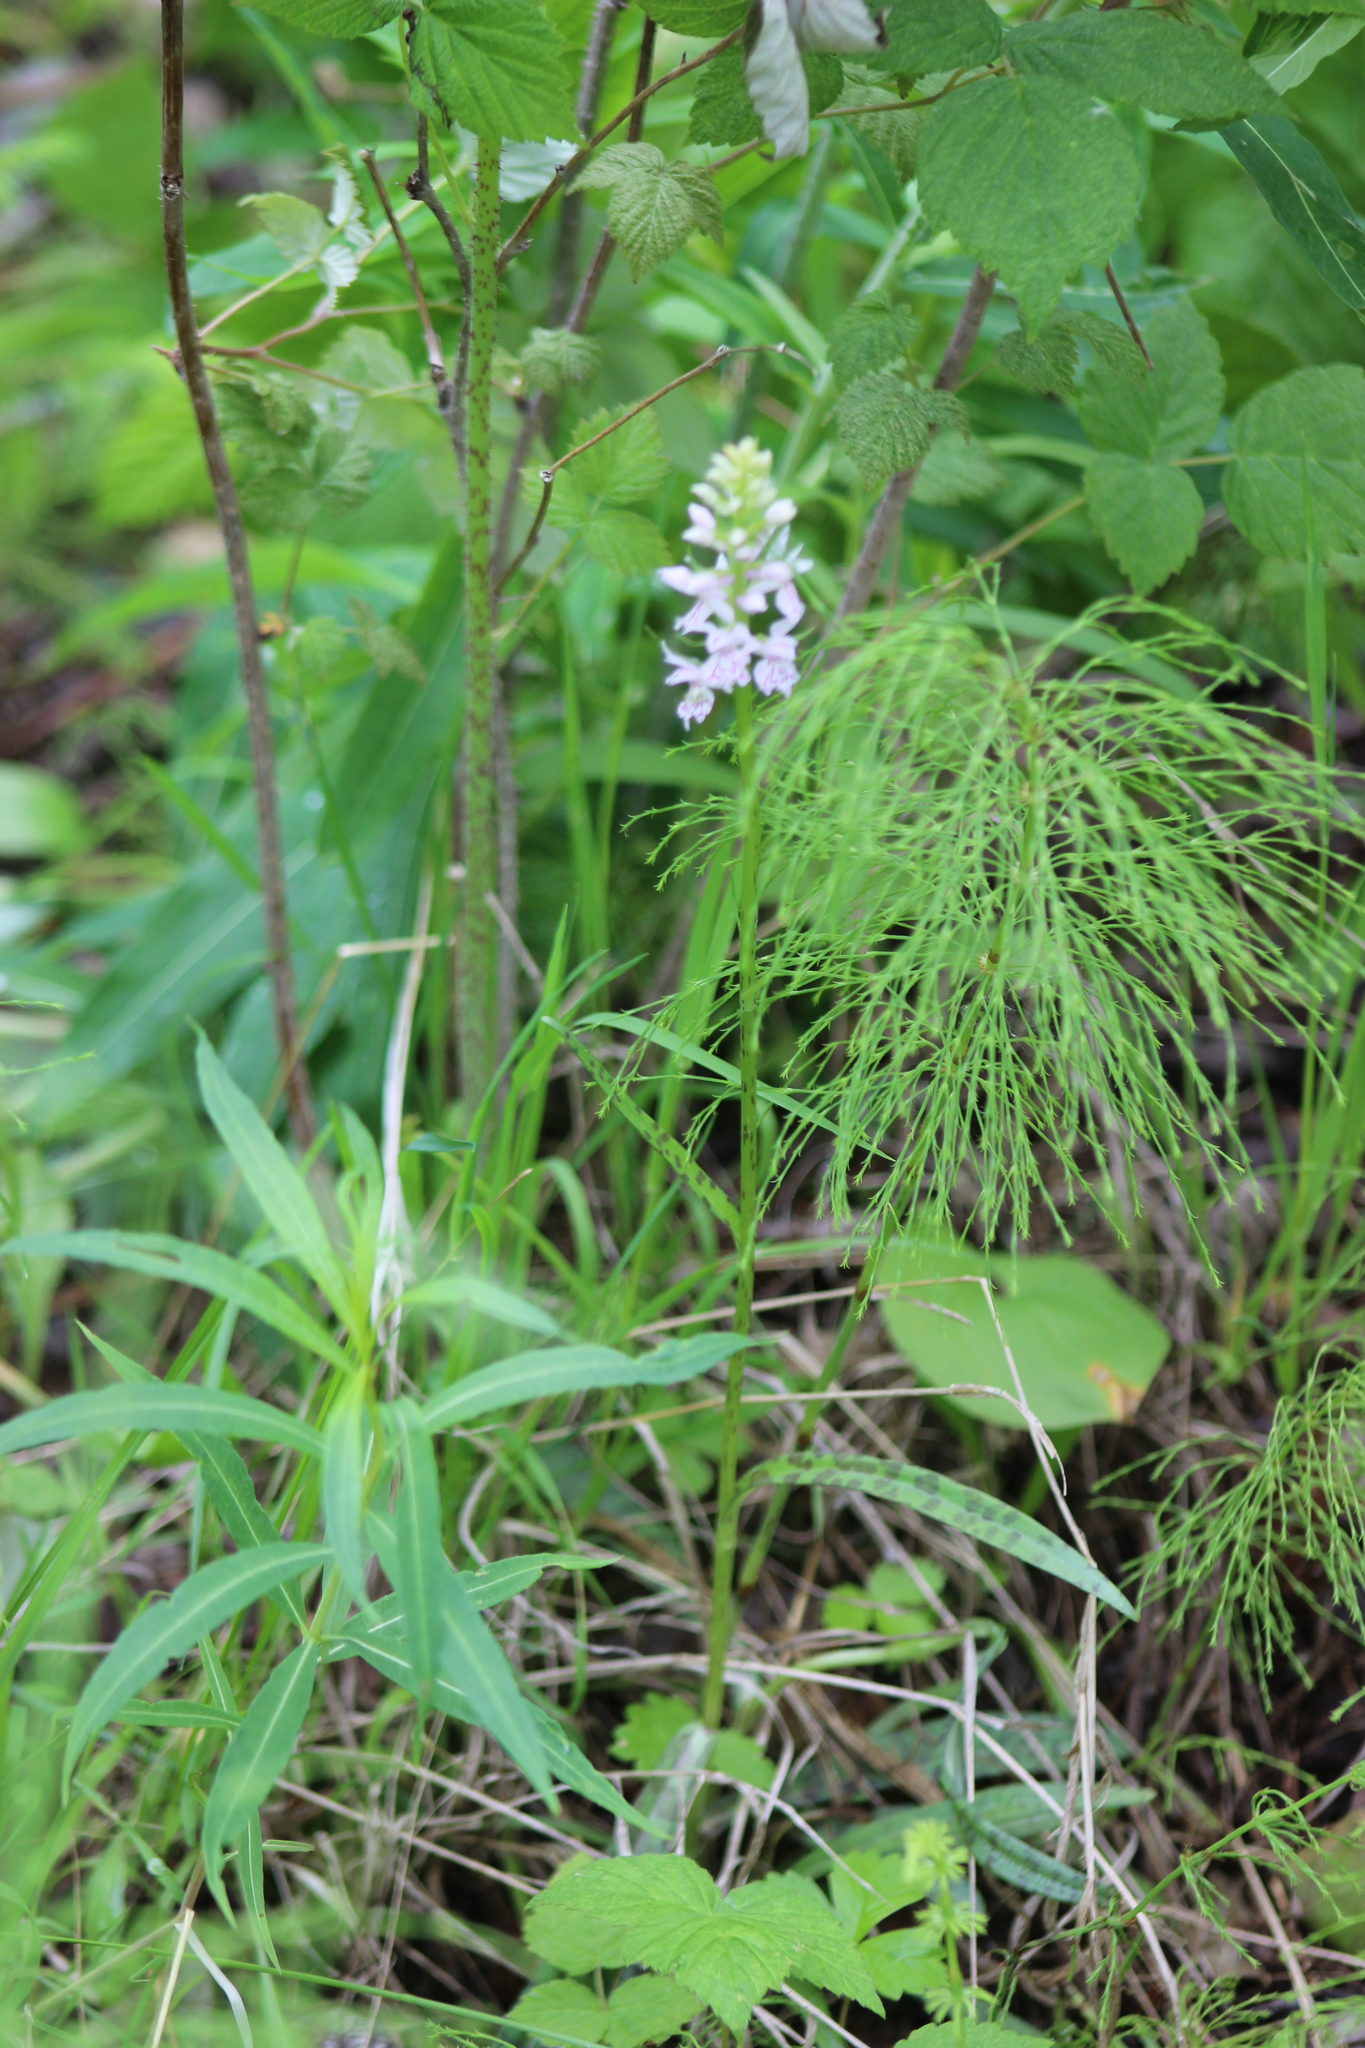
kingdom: Plantae
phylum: Tracheophyta
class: Liliopsida
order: Asparagales
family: Orchidaceae
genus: Dactylorhiza
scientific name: Dactylorhiza maculata
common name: Heath spotted-orchid
